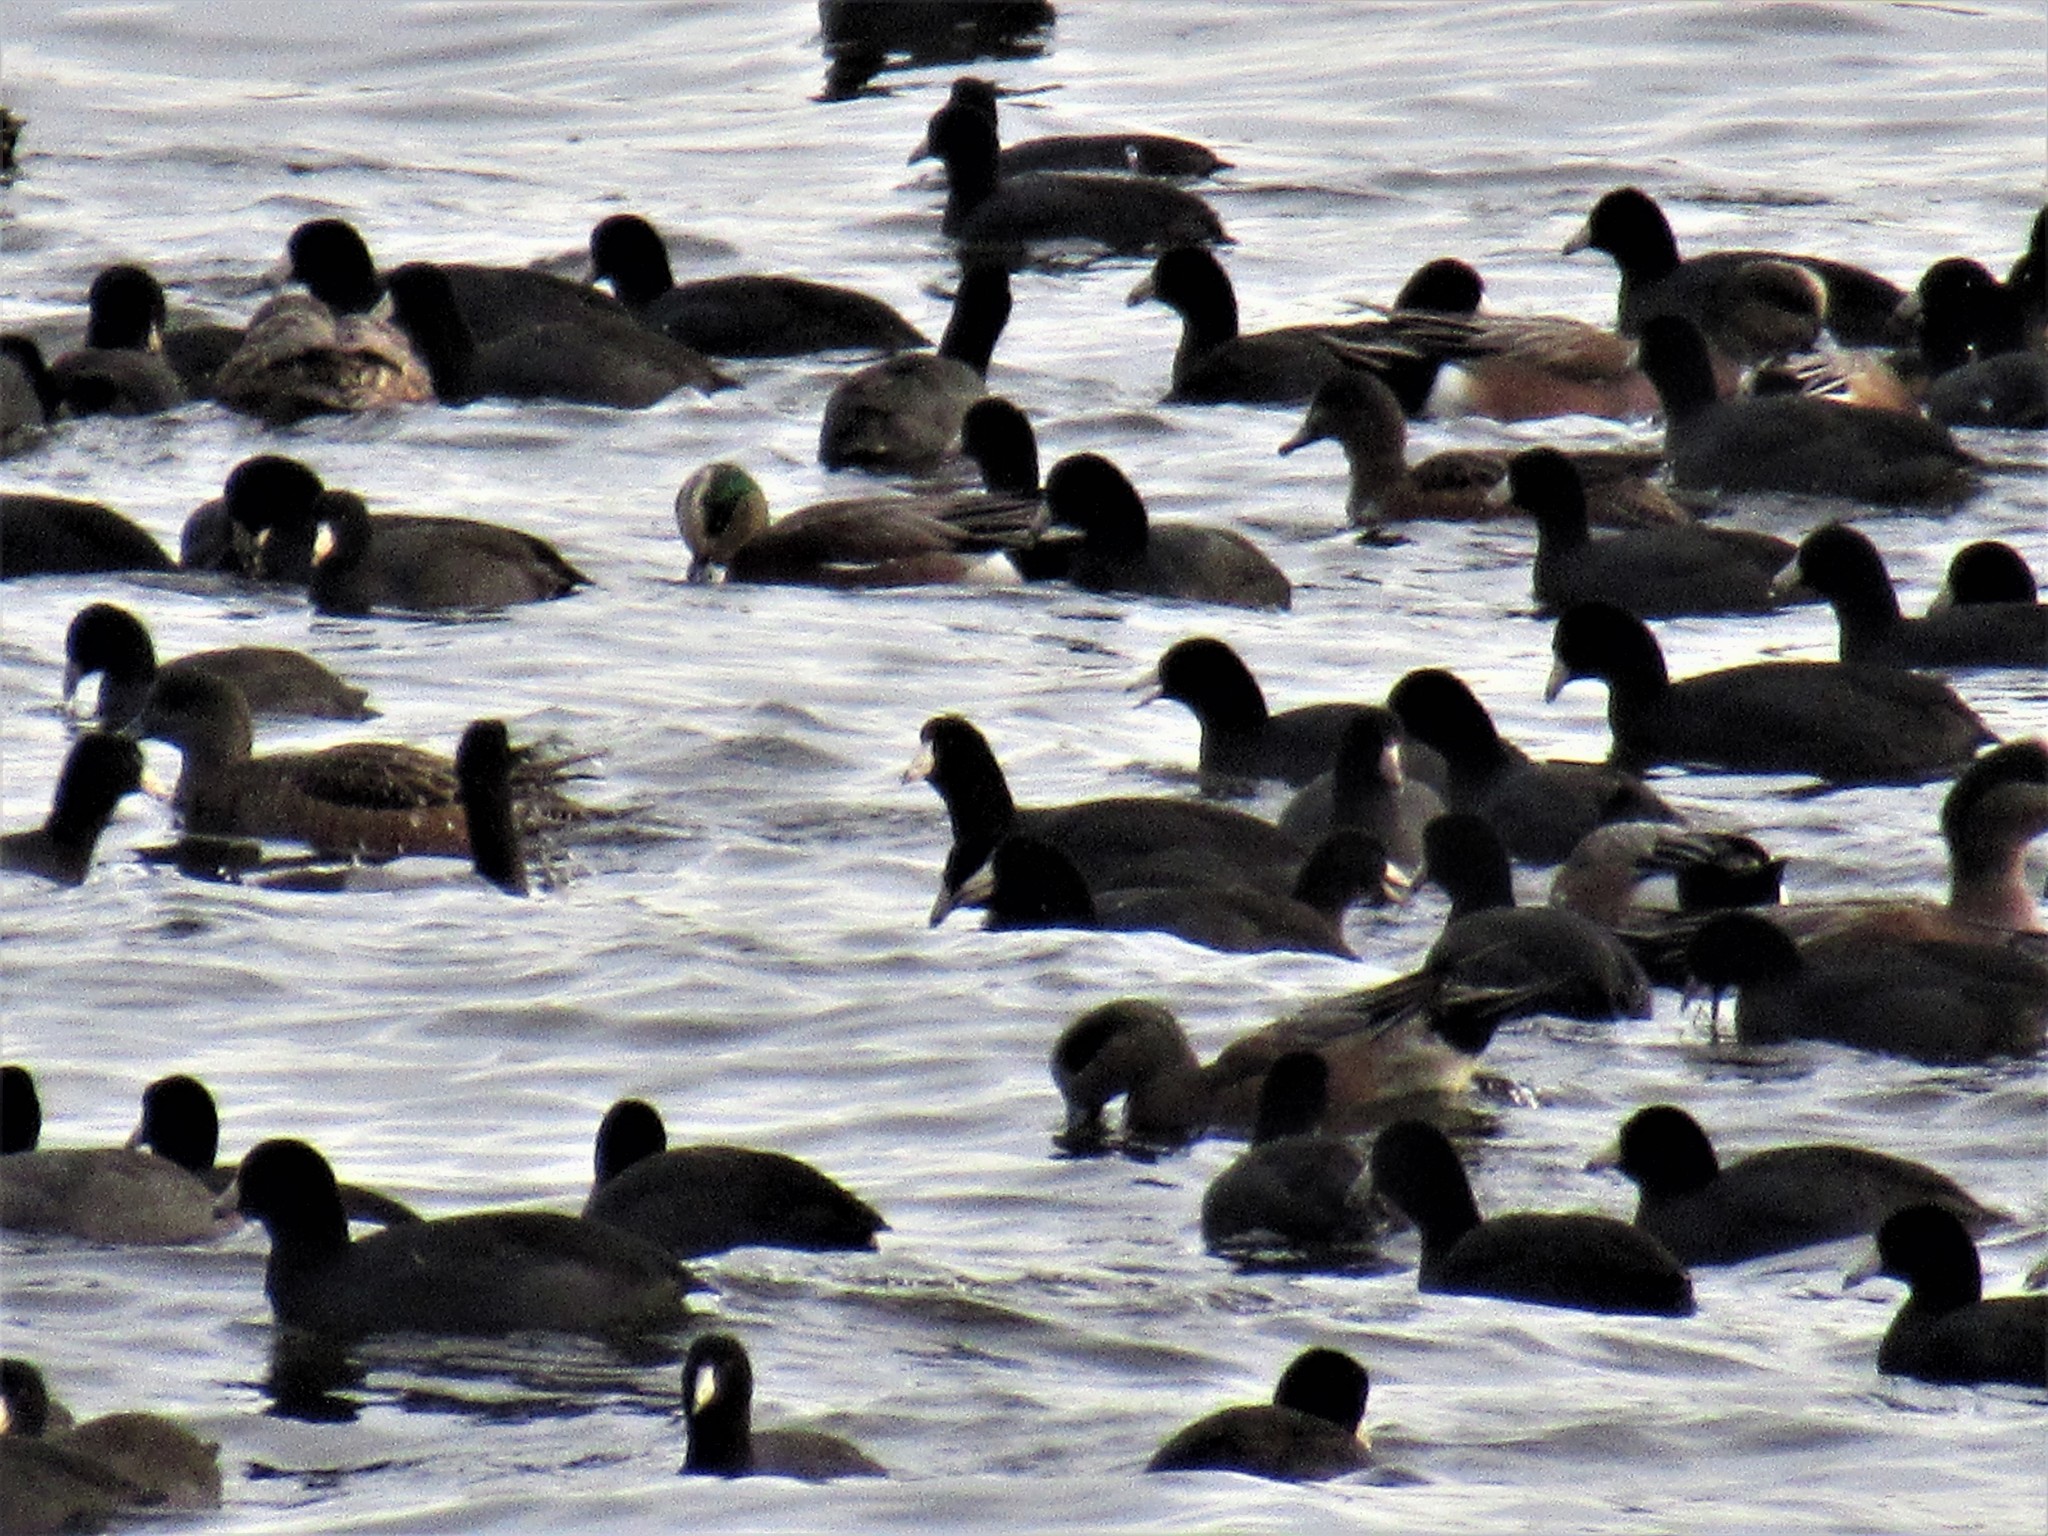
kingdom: Animalia
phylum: Chordata
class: Aves
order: Gruiformes
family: Rallidae
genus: Fulica
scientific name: Fulica americana
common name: American coot
